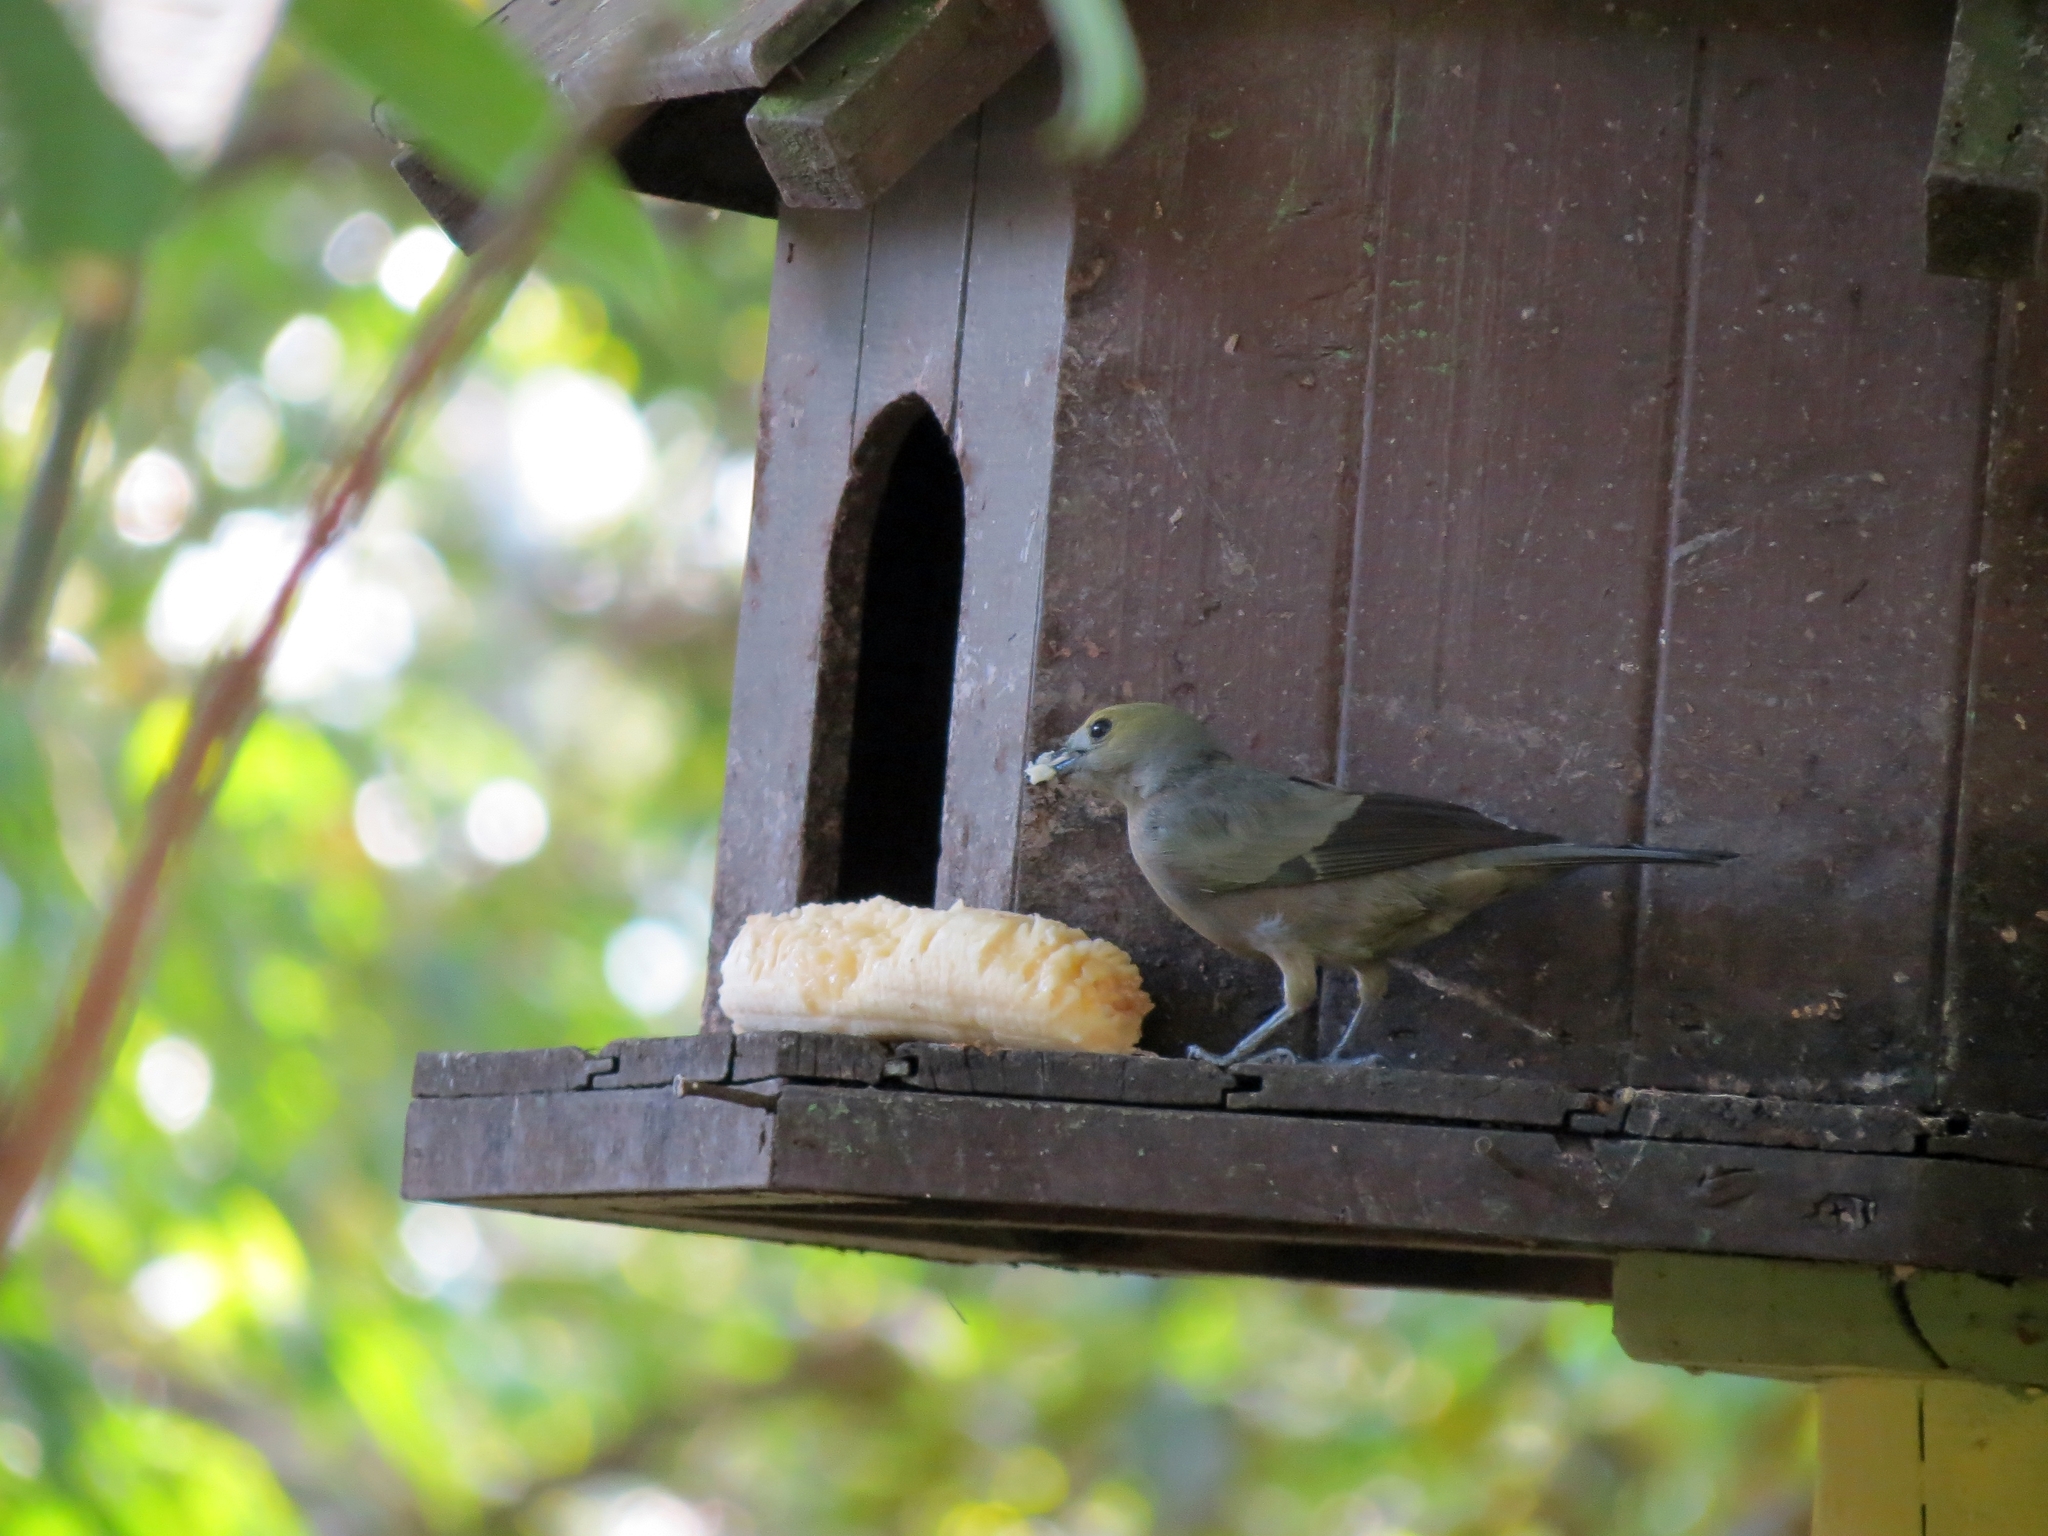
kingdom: Animalia
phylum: Chordata
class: Aves
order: Passeriformes
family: Thraupidae
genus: Thraupis
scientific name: Thraupis palmarum
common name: Palm tanager
